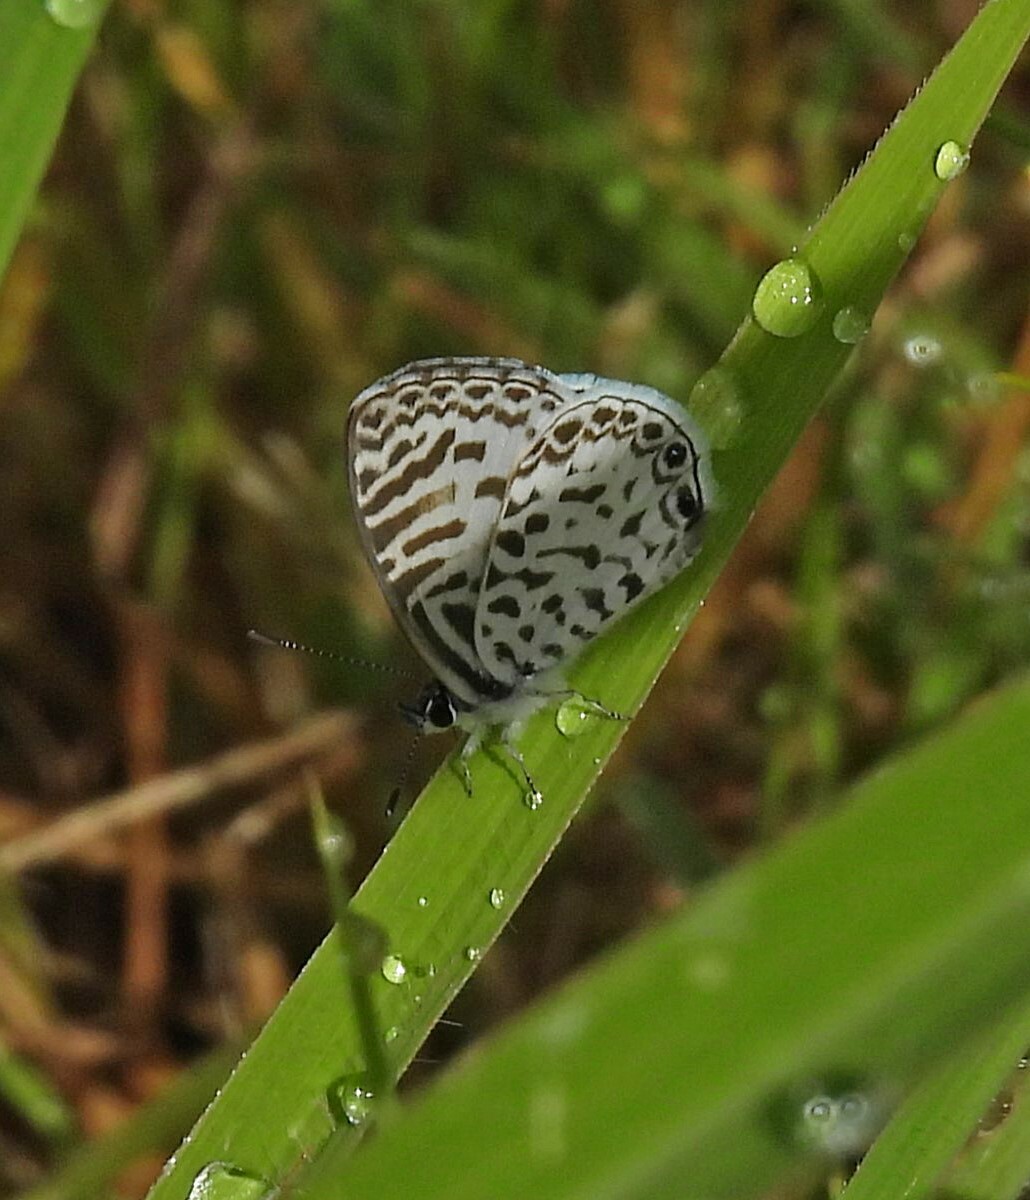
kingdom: Animalia
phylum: Arthropoda
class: Insecta
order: Lepidoptera
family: Lycaenidae
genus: Leptotes
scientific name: Leptotes cassius
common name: Cassius blue
